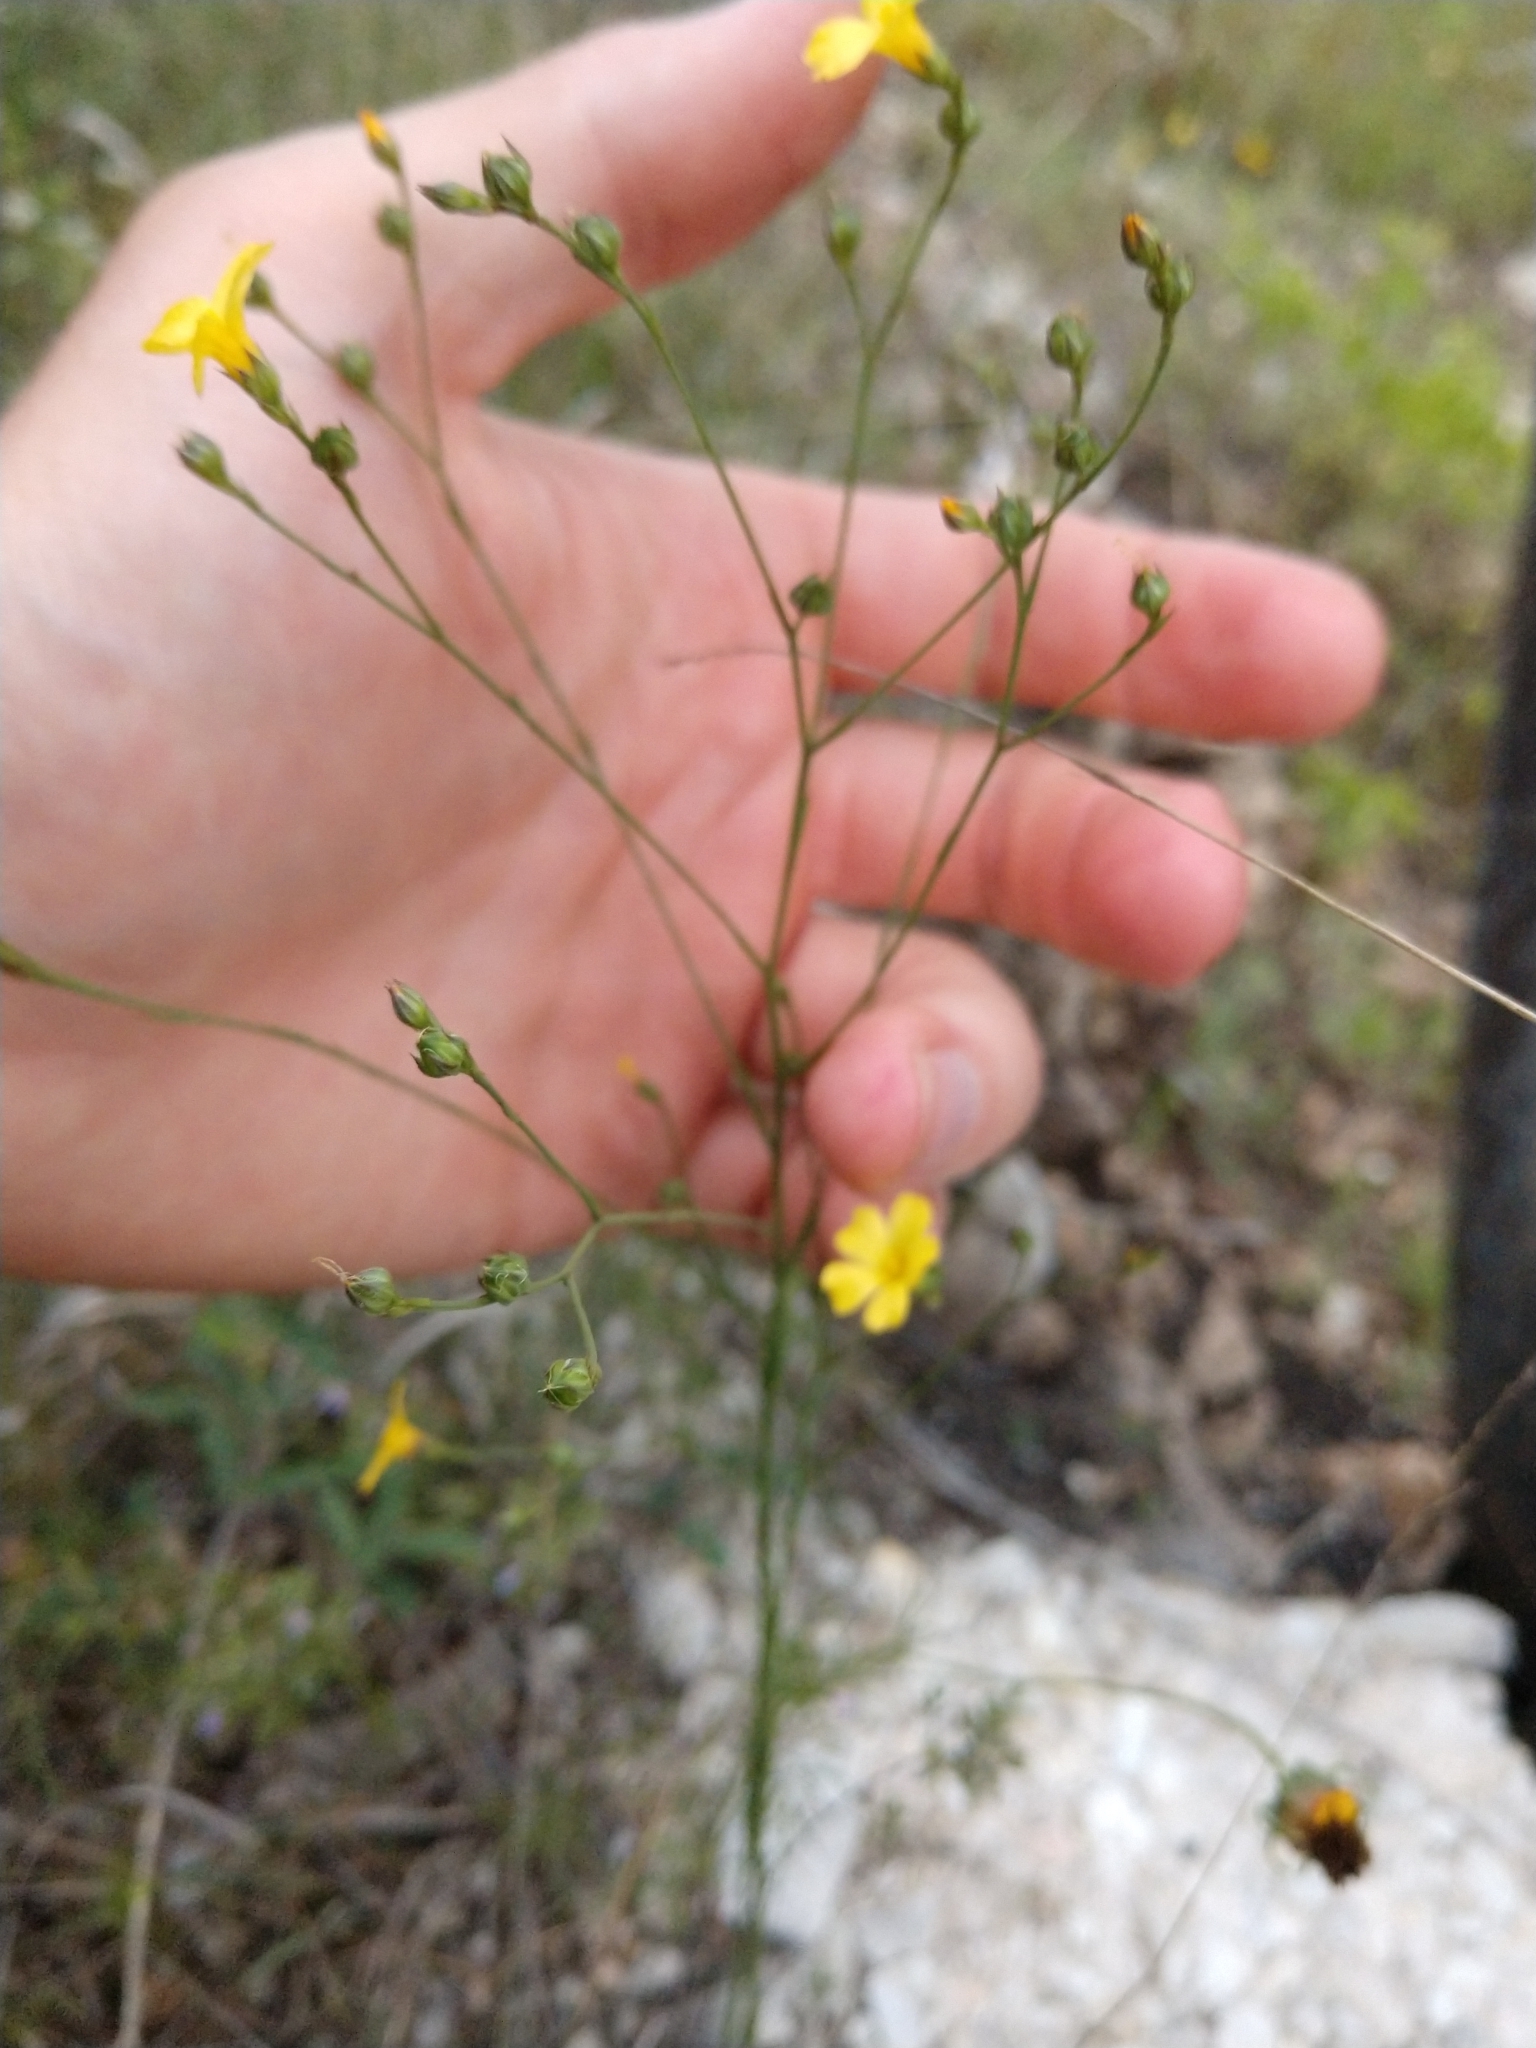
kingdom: Plantae
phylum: Tracheophyta
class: Magnoliopsida
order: Malpighiales
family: Linaceae
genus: Linum
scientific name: Linum rupestre
